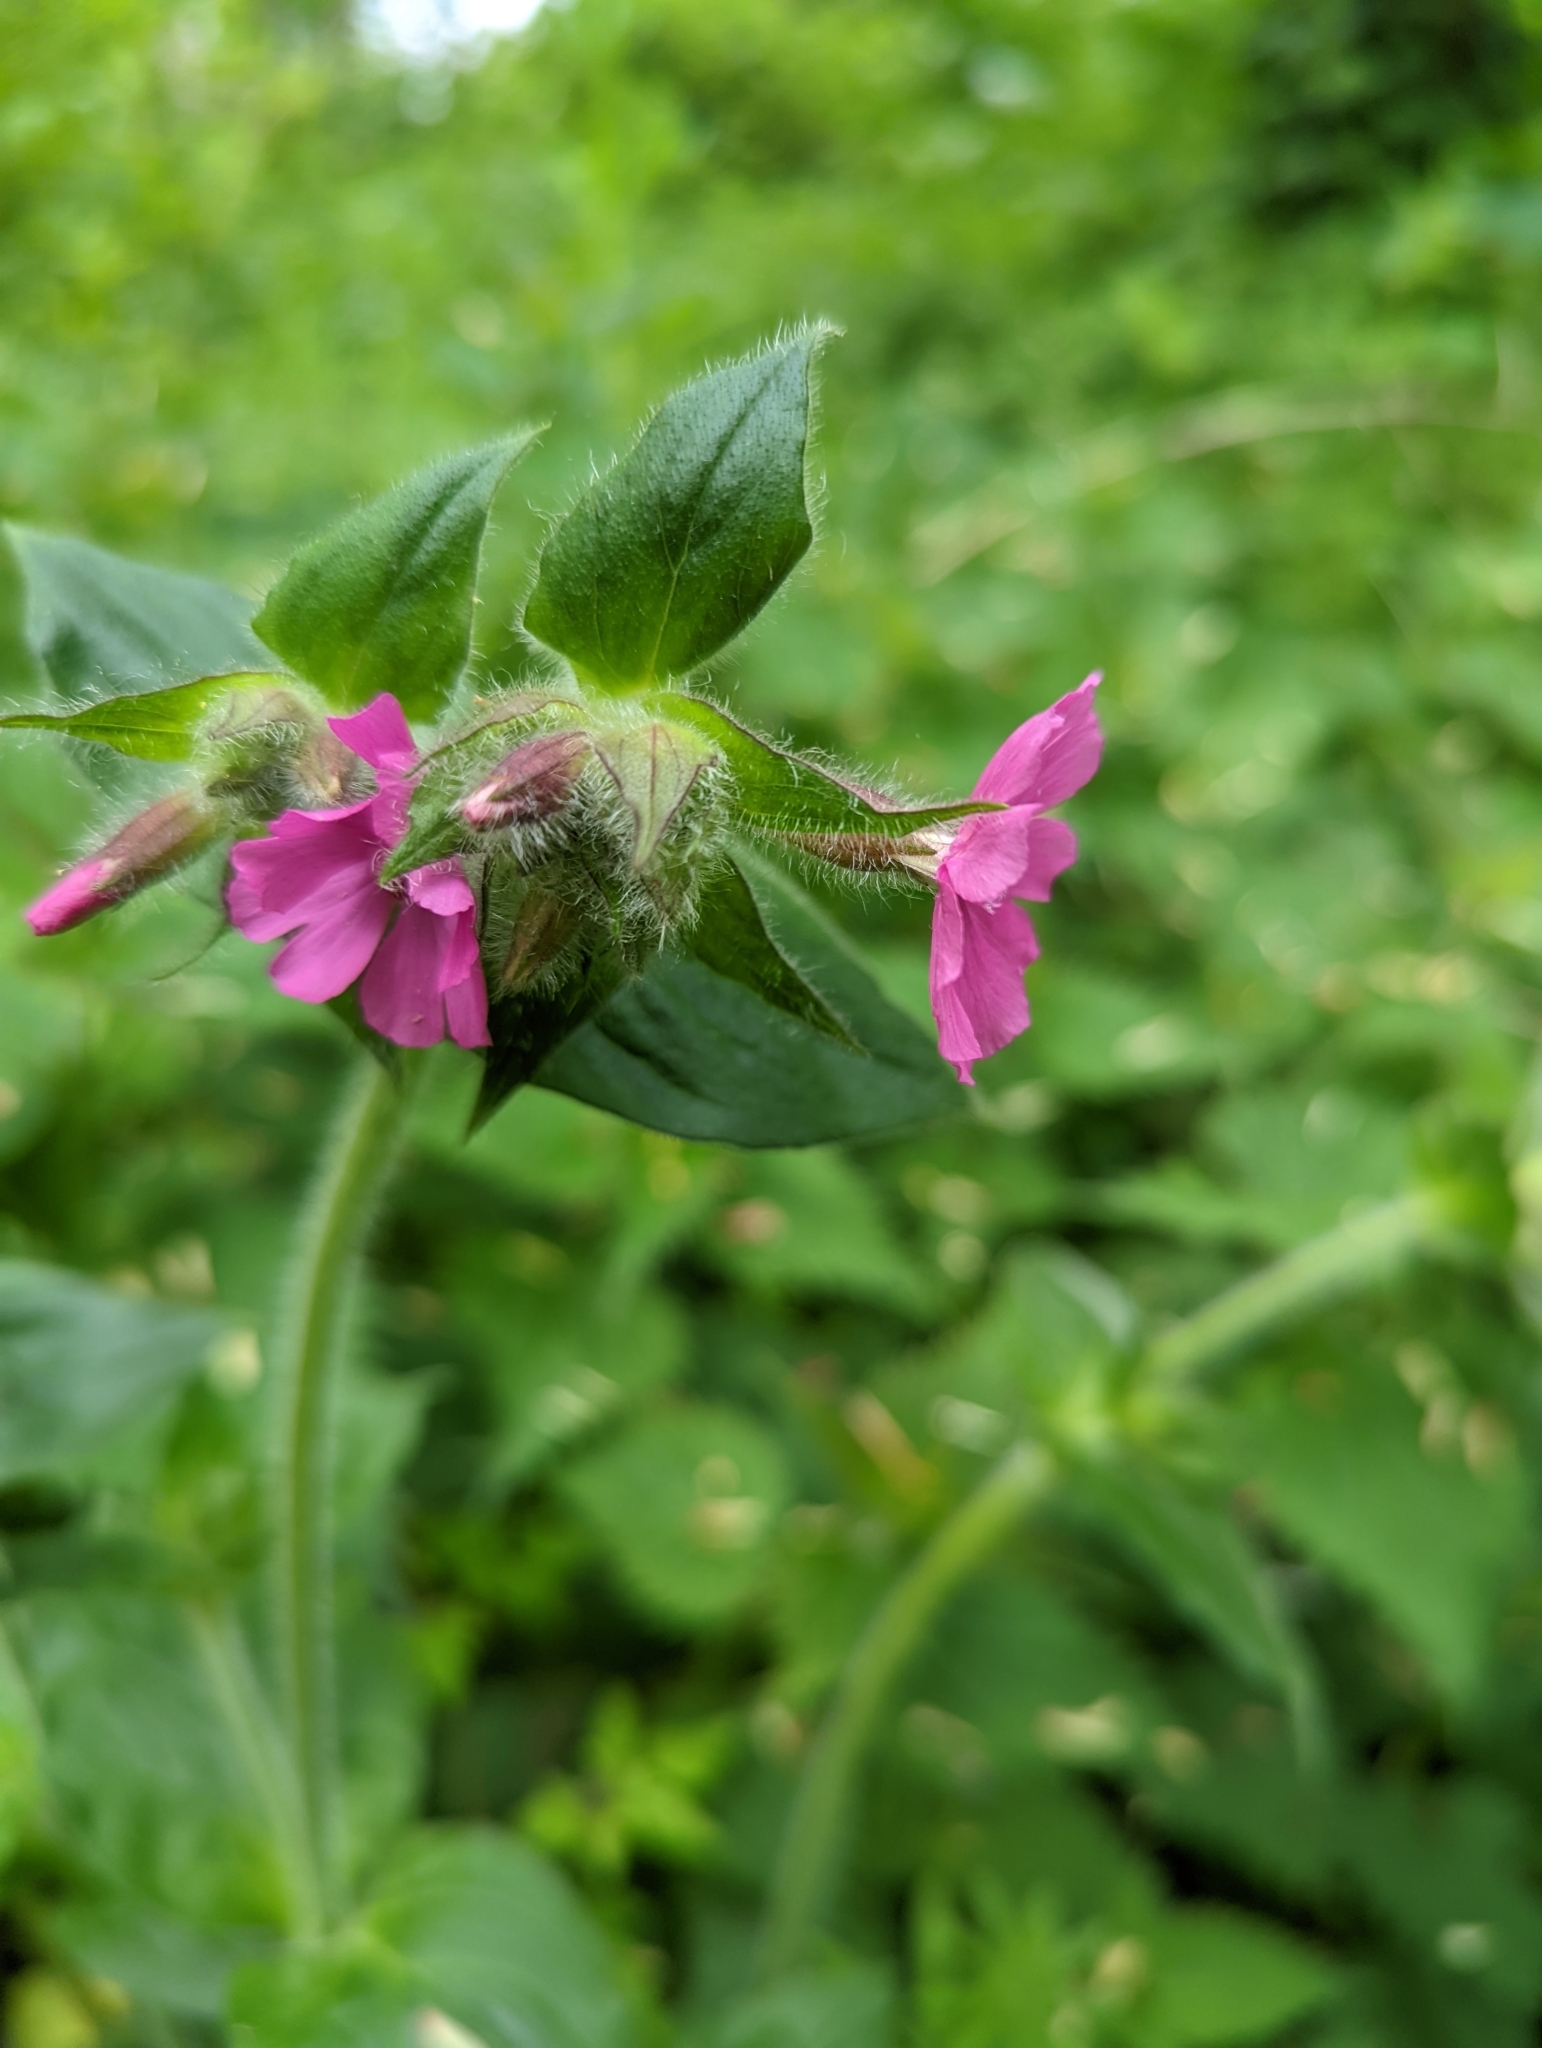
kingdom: Plantae
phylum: Tracheophyta
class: Magnoliopsida
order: Caryophyllales
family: Caryophyllaceae
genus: Silene
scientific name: Silene dioica
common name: Red campion
